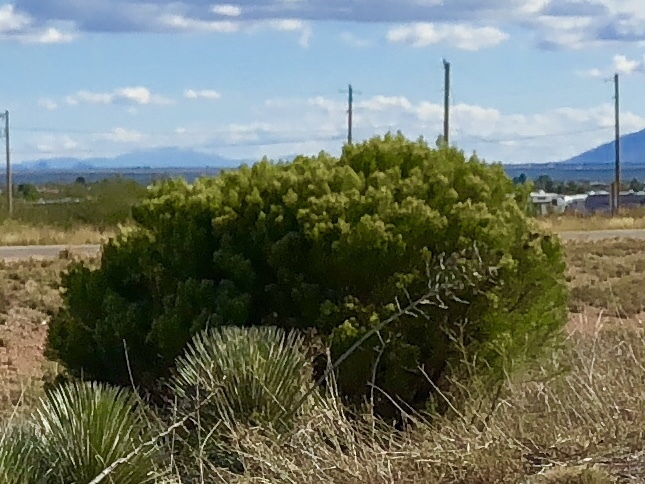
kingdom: Plantae
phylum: Tracheophyta
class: Magnoliopsida
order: Asterales
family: Asteraceae
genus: Baccharis
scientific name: Baccharis sarothroides
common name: Desert-broom
